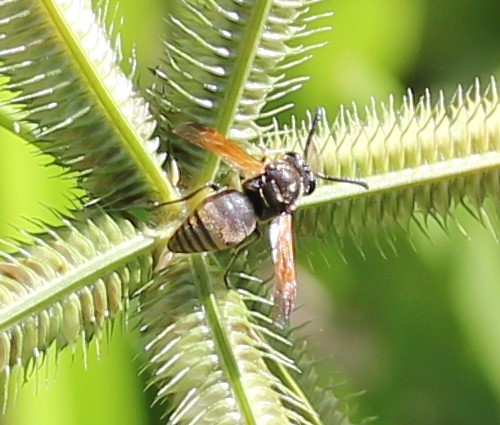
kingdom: Animalia
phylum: Arthropoda
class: Insecta
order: Hymenoptera
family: Eumenidae
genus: Pachodynerus
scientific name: Pachodynerus nasidens
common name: Key hole wasp
